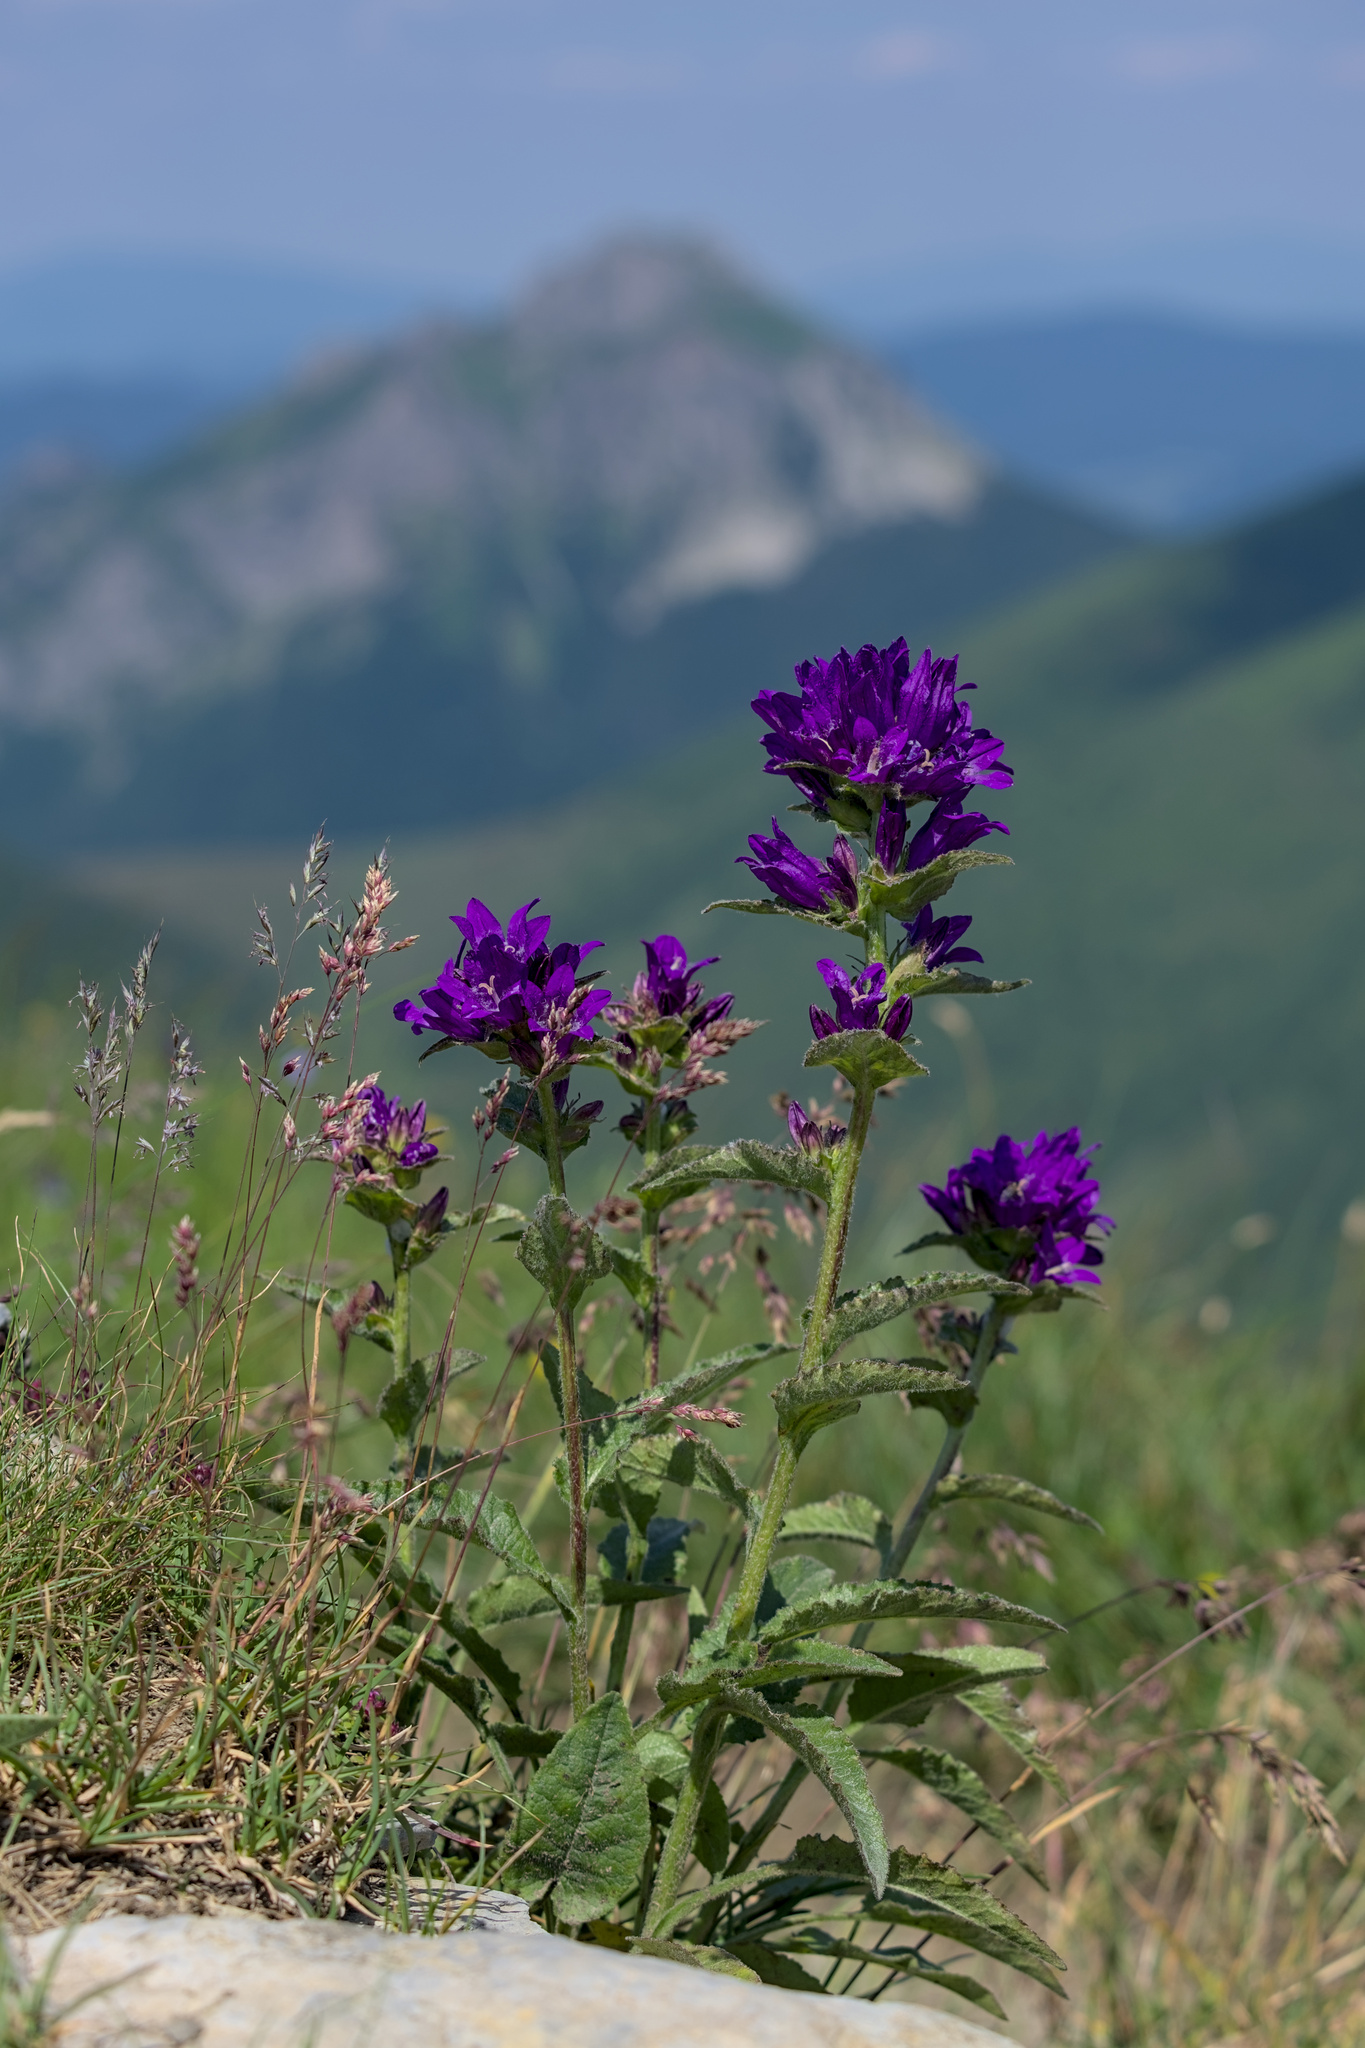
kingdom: Plantae
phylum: Tracheophyta
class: Magnoliopsida
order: Asterales
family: Campanulaceae
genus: Campanula
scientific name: Campanula glomerata
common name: Clustered bellflower
